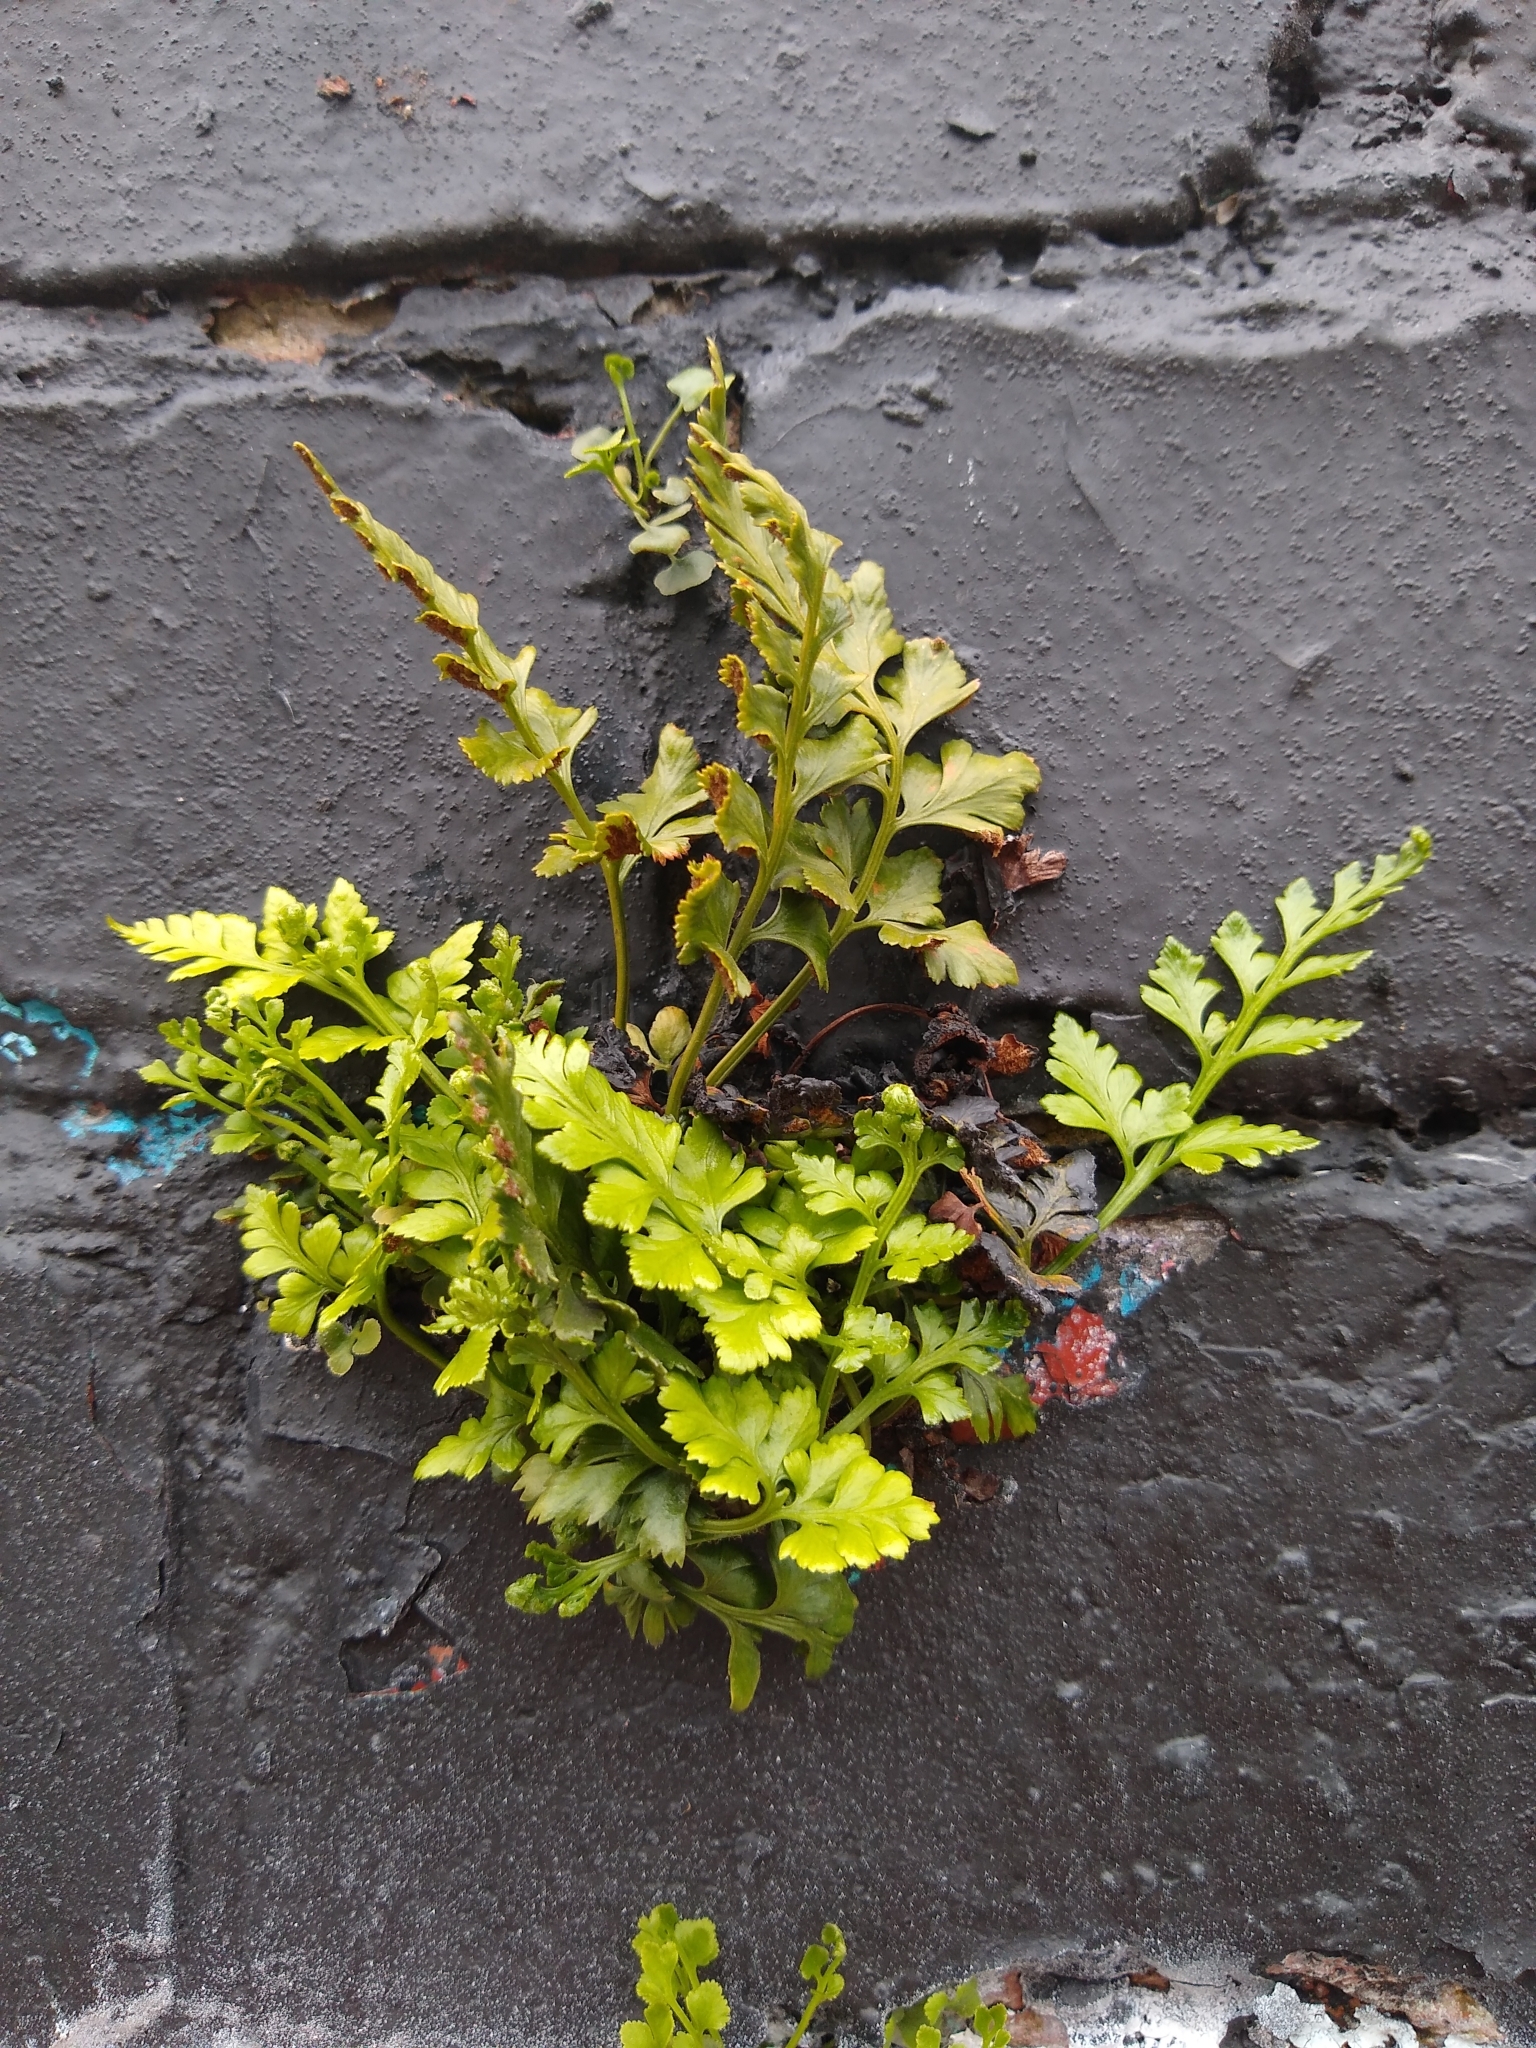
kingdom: Plantae
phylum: Tracheophyta
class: Polypodiopsida
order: Polypodiales
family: Aspleniaceae
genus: Asplenium
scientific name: Asplenium adiantum-nigrum
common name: Black spleenwort
